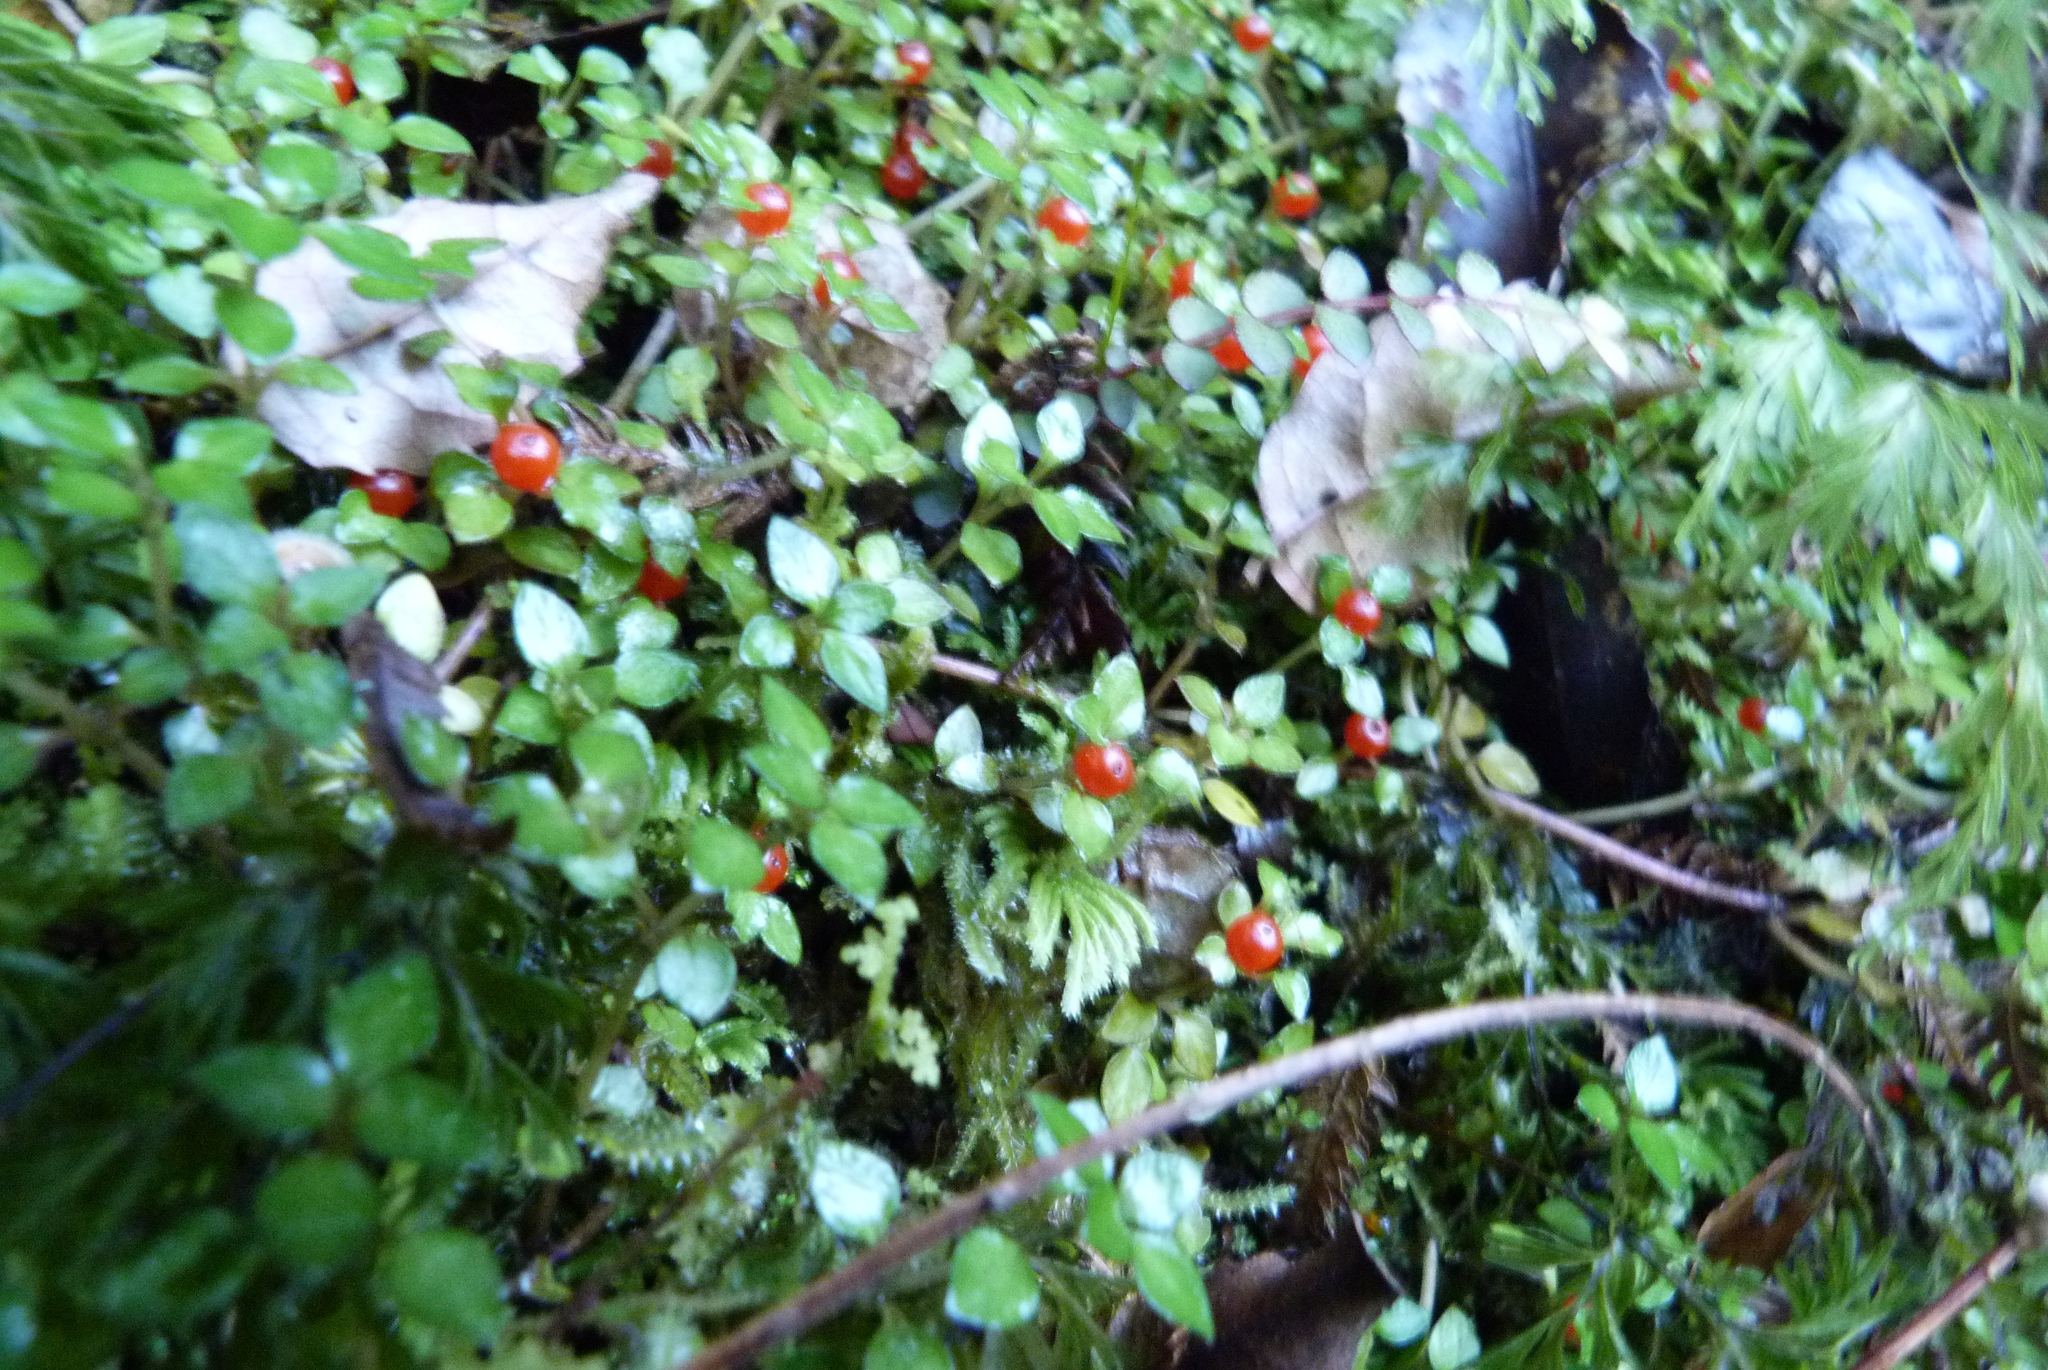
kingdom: Plantae
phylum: Tracheophyta
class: Magnoliopsida
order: Gentianales
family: Rubiaceae
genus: Nertera
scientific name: Nertera granadensis
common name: Beadplant
